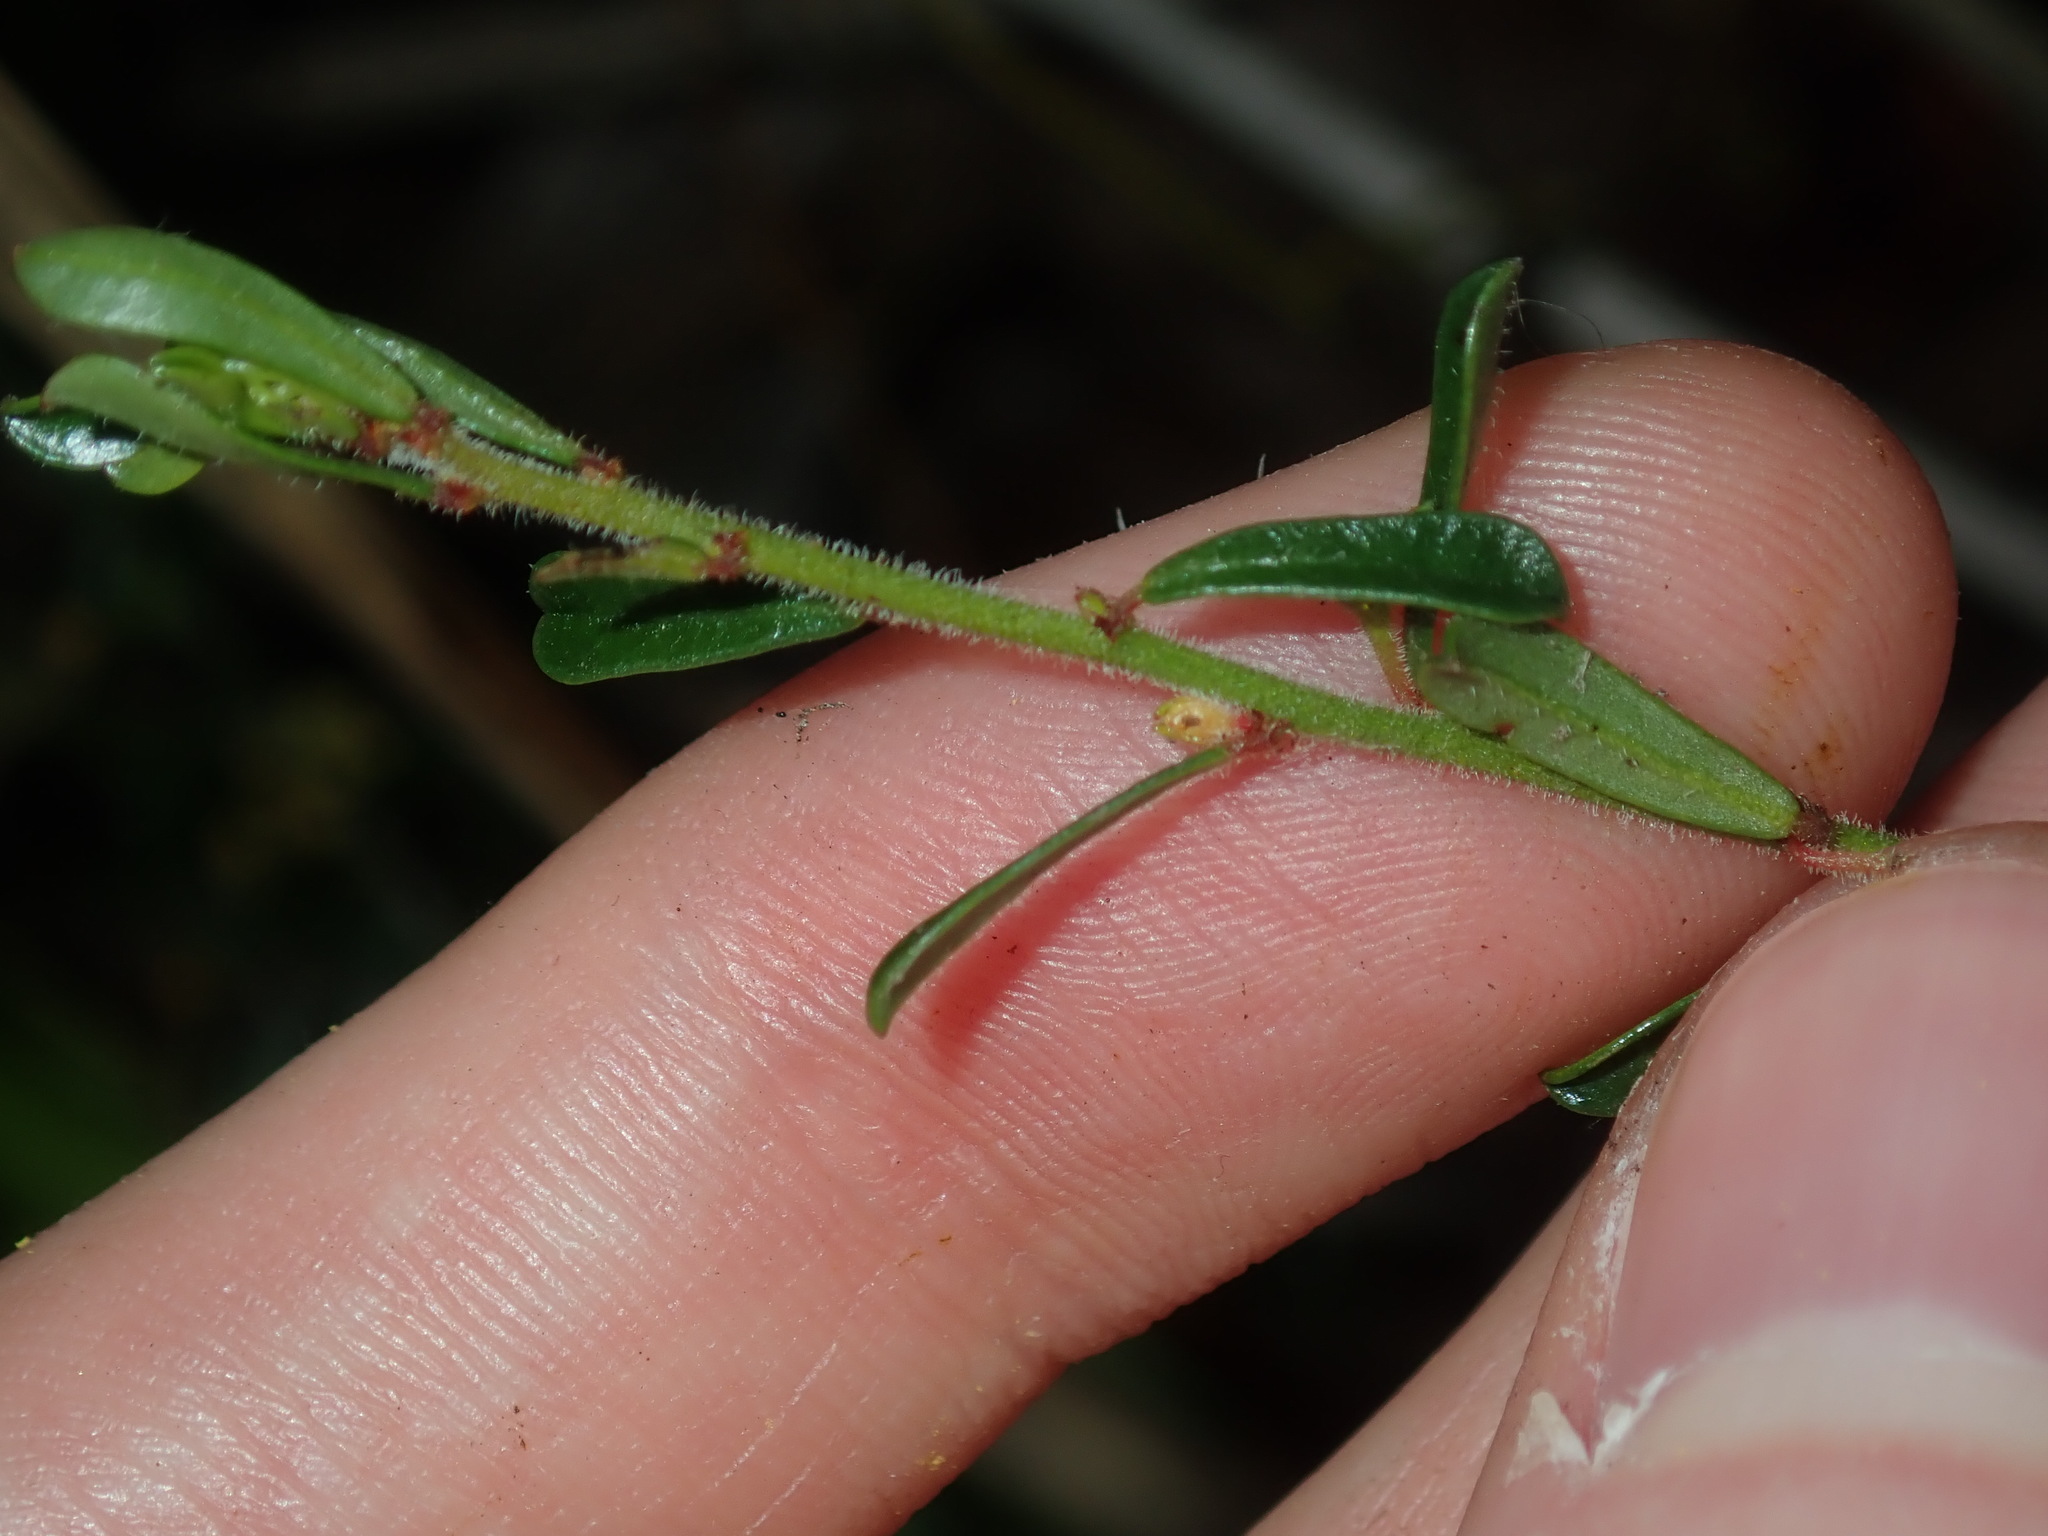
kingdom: Plantae
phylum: Tracheophyta
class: Magnoliopsida
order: Malpighiales
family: Phyllanthaceae
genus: Phyllanthus
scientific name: Phyllanthus hirtellus
